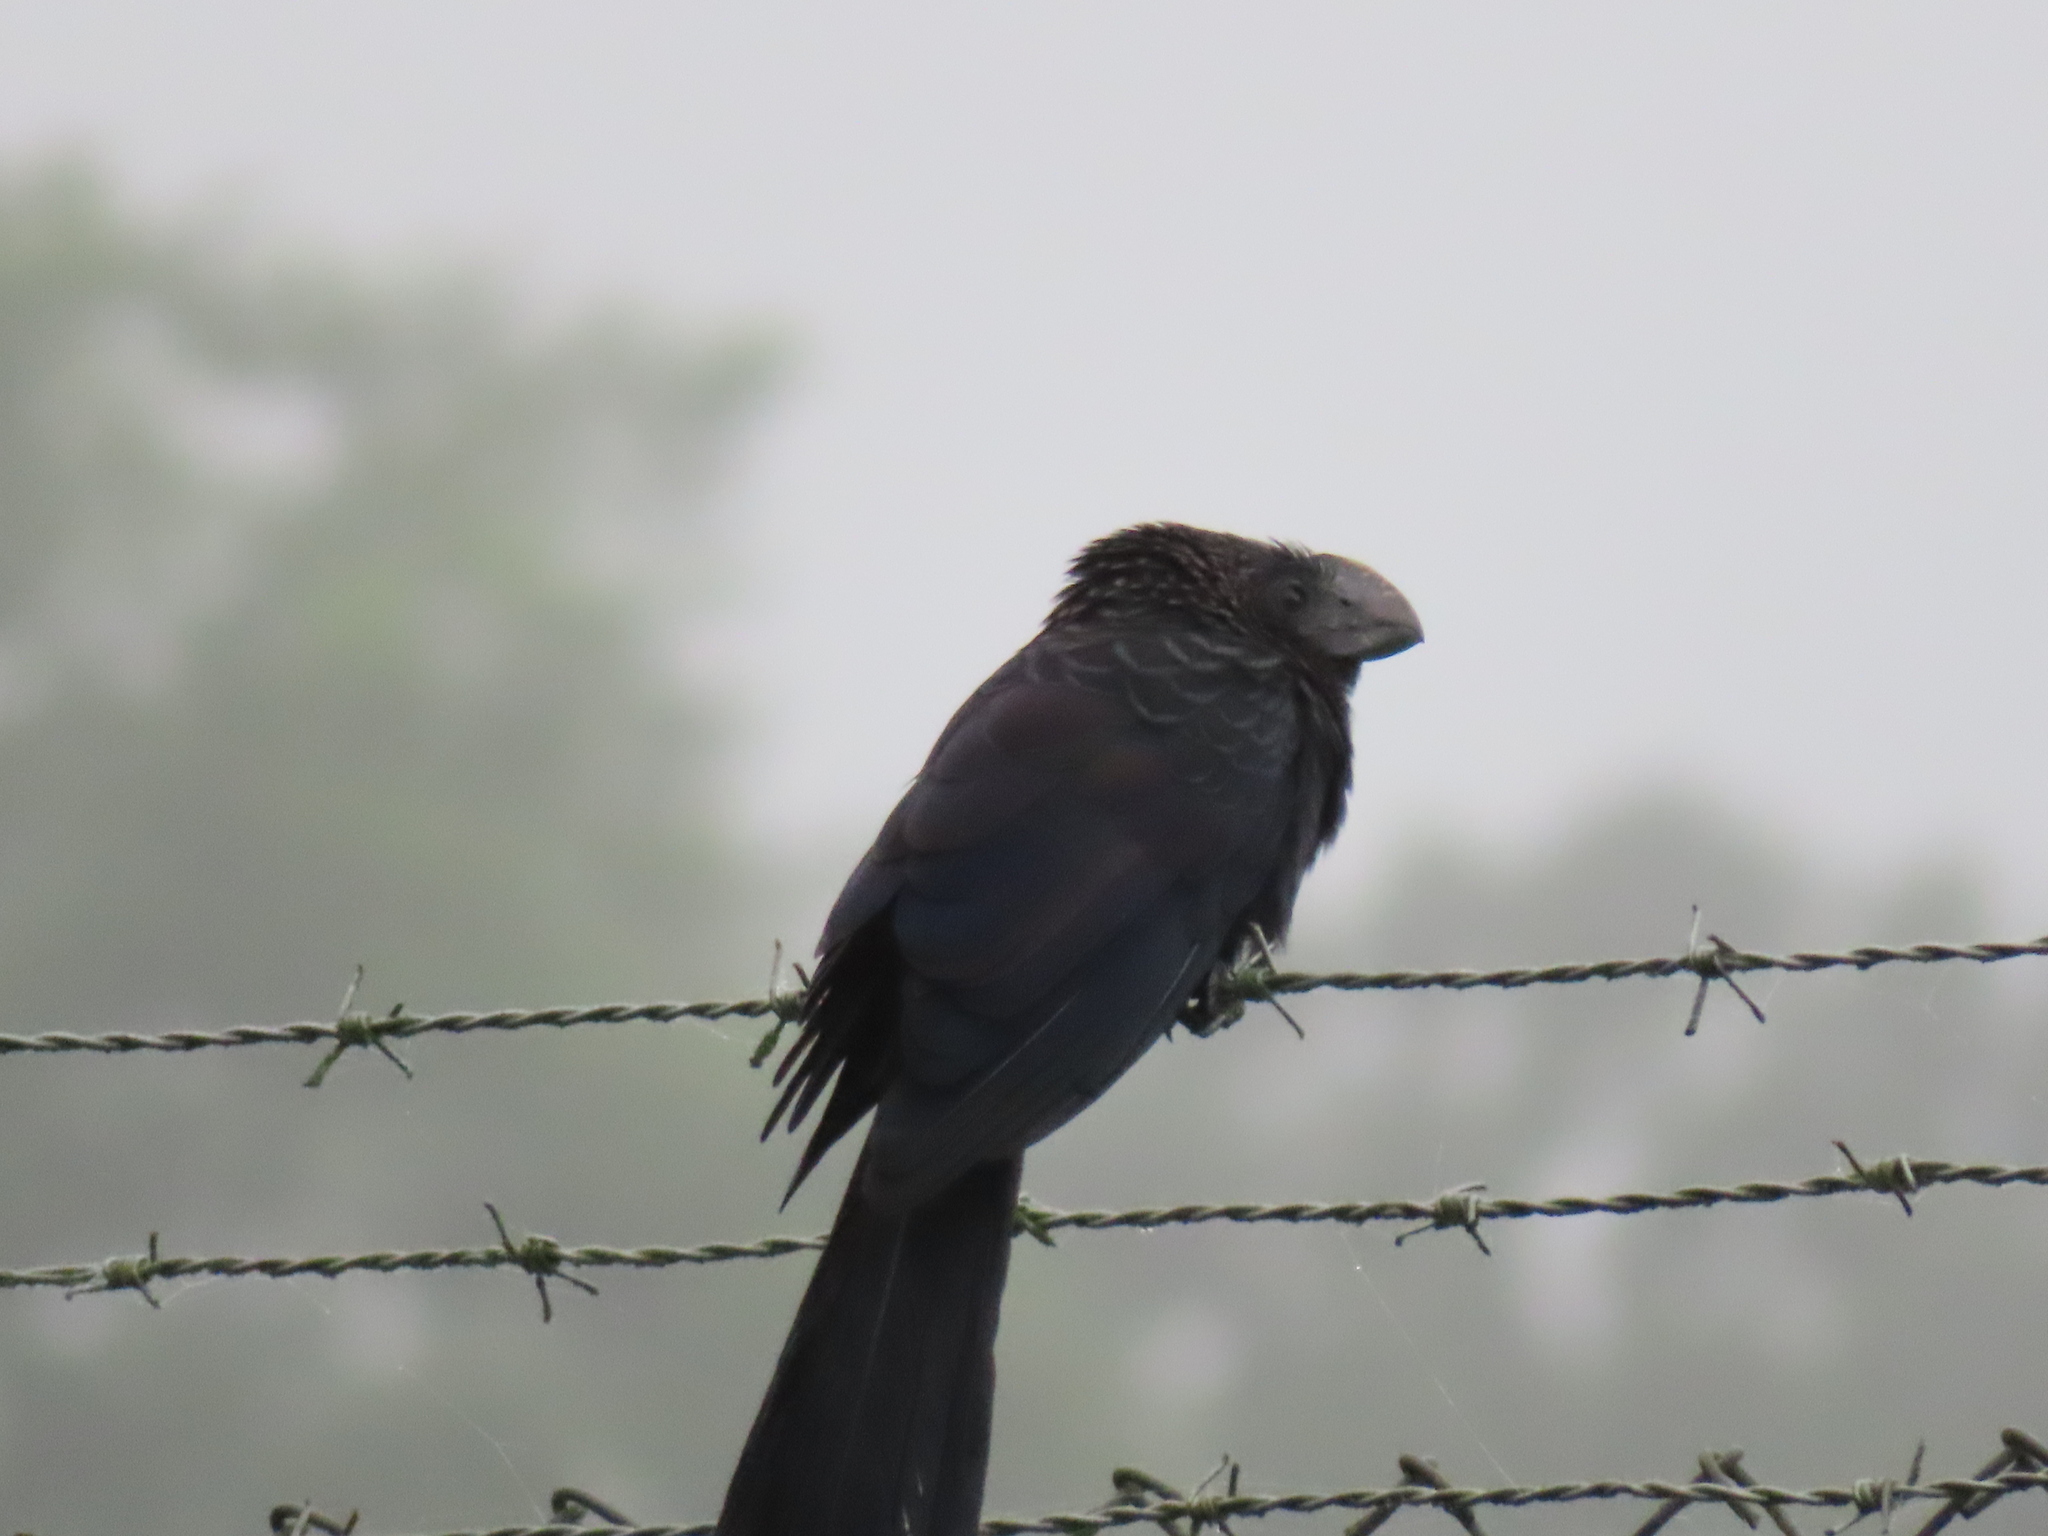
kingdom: Animalia
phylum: Chordata
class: Aves
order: Cuculiformes
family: Cuculidae
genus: Crotophaga
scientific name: Crotophaga ani
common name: Smooth-billed ani
